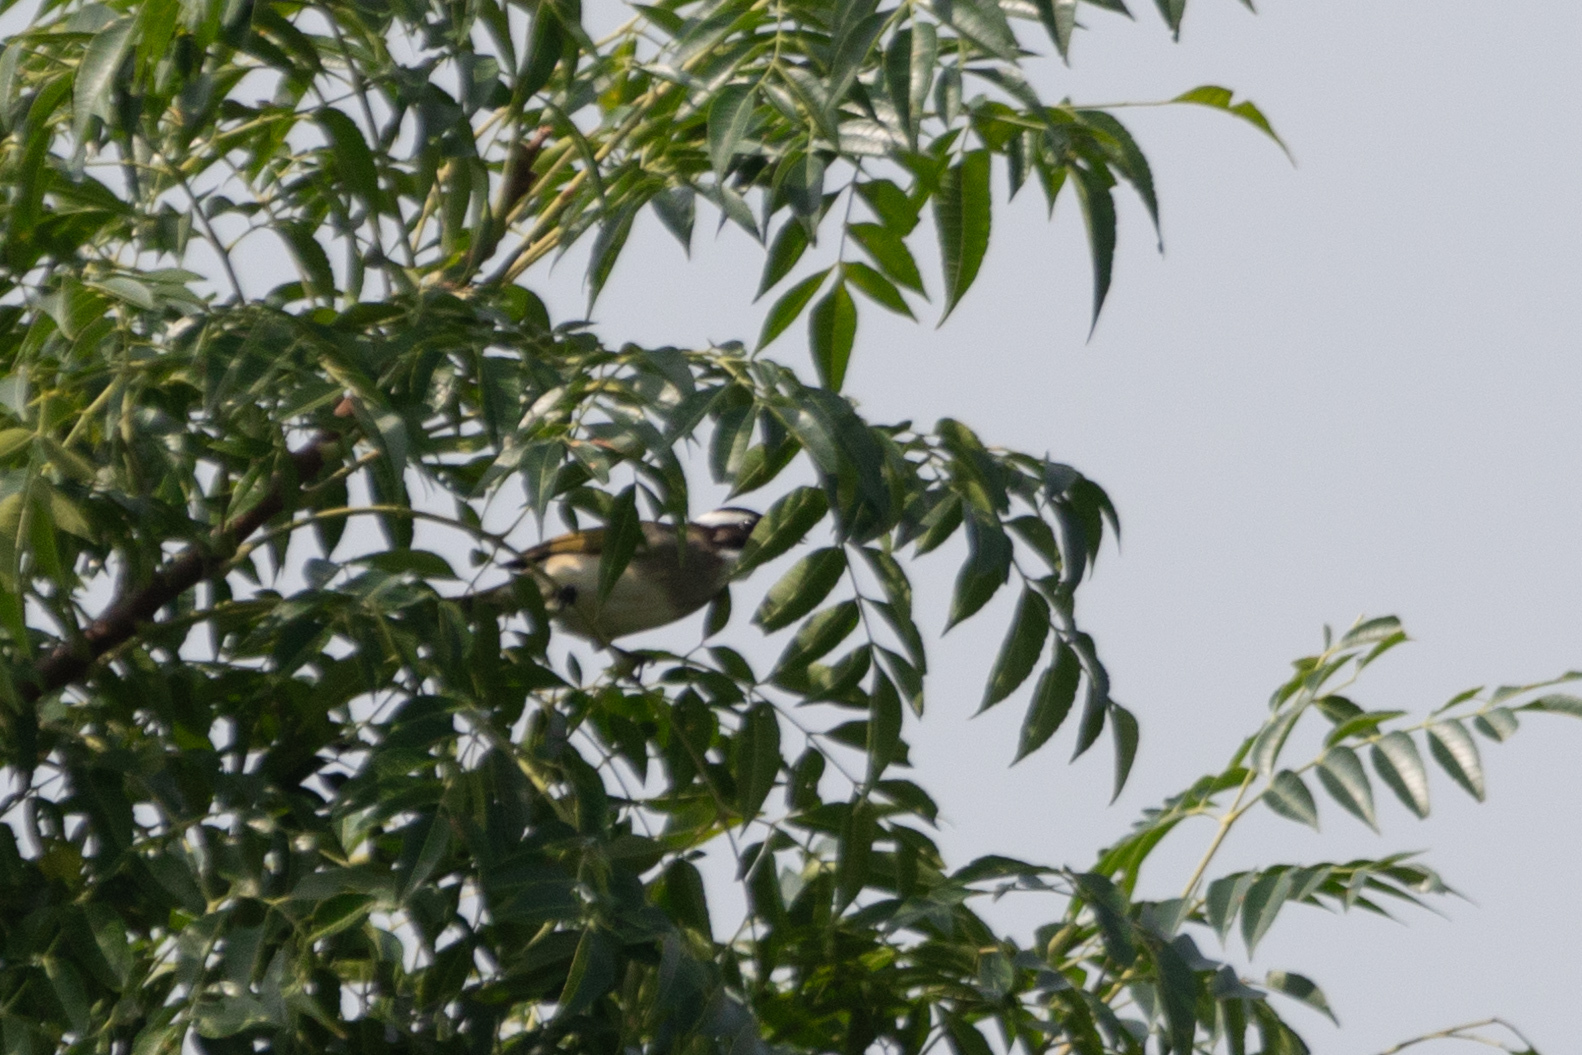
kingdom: Animalia
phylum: Chordata
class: Aves
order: Passeriformes
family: Pycnonotidae
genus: Pycnonotus
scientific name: Pycnonotus sinensis
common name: Light-vented bulbul
